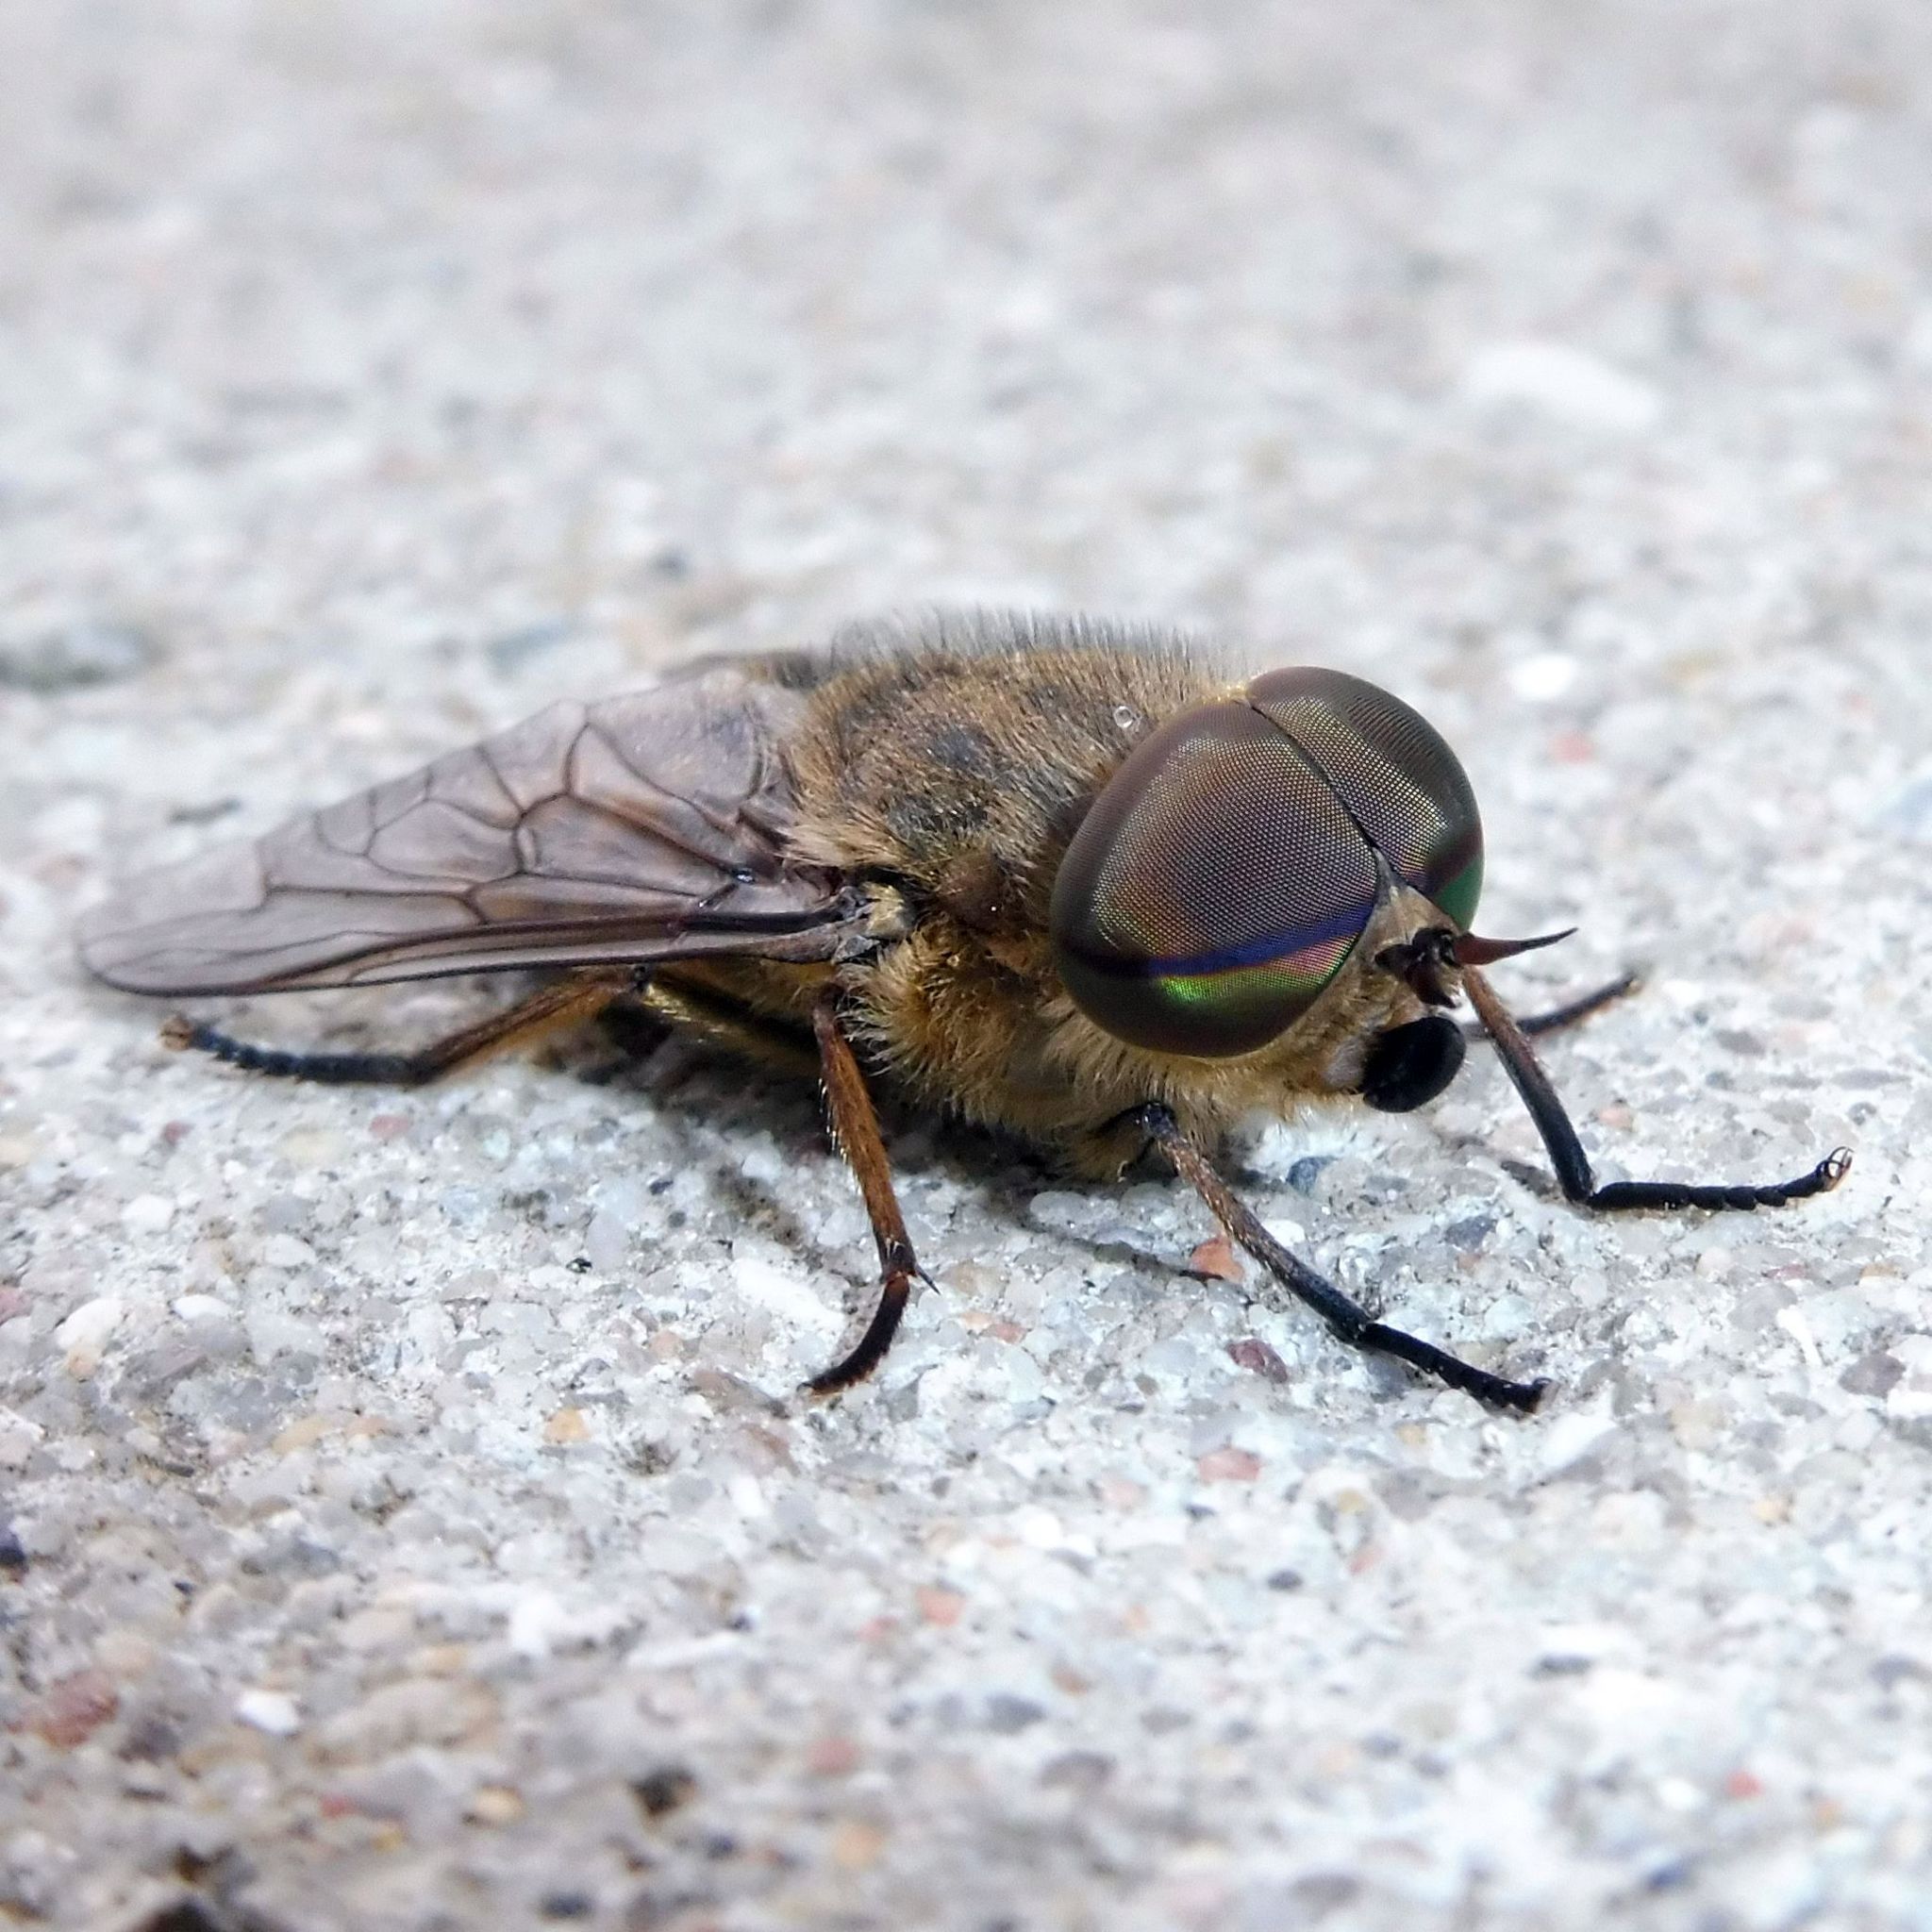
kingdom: Animalia
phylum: Arthropoda
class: Insecta
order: Diptera
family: Tabanidae
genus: Tabanus
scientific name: Tabanus bromius
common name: Band-eyed brown horsefly
